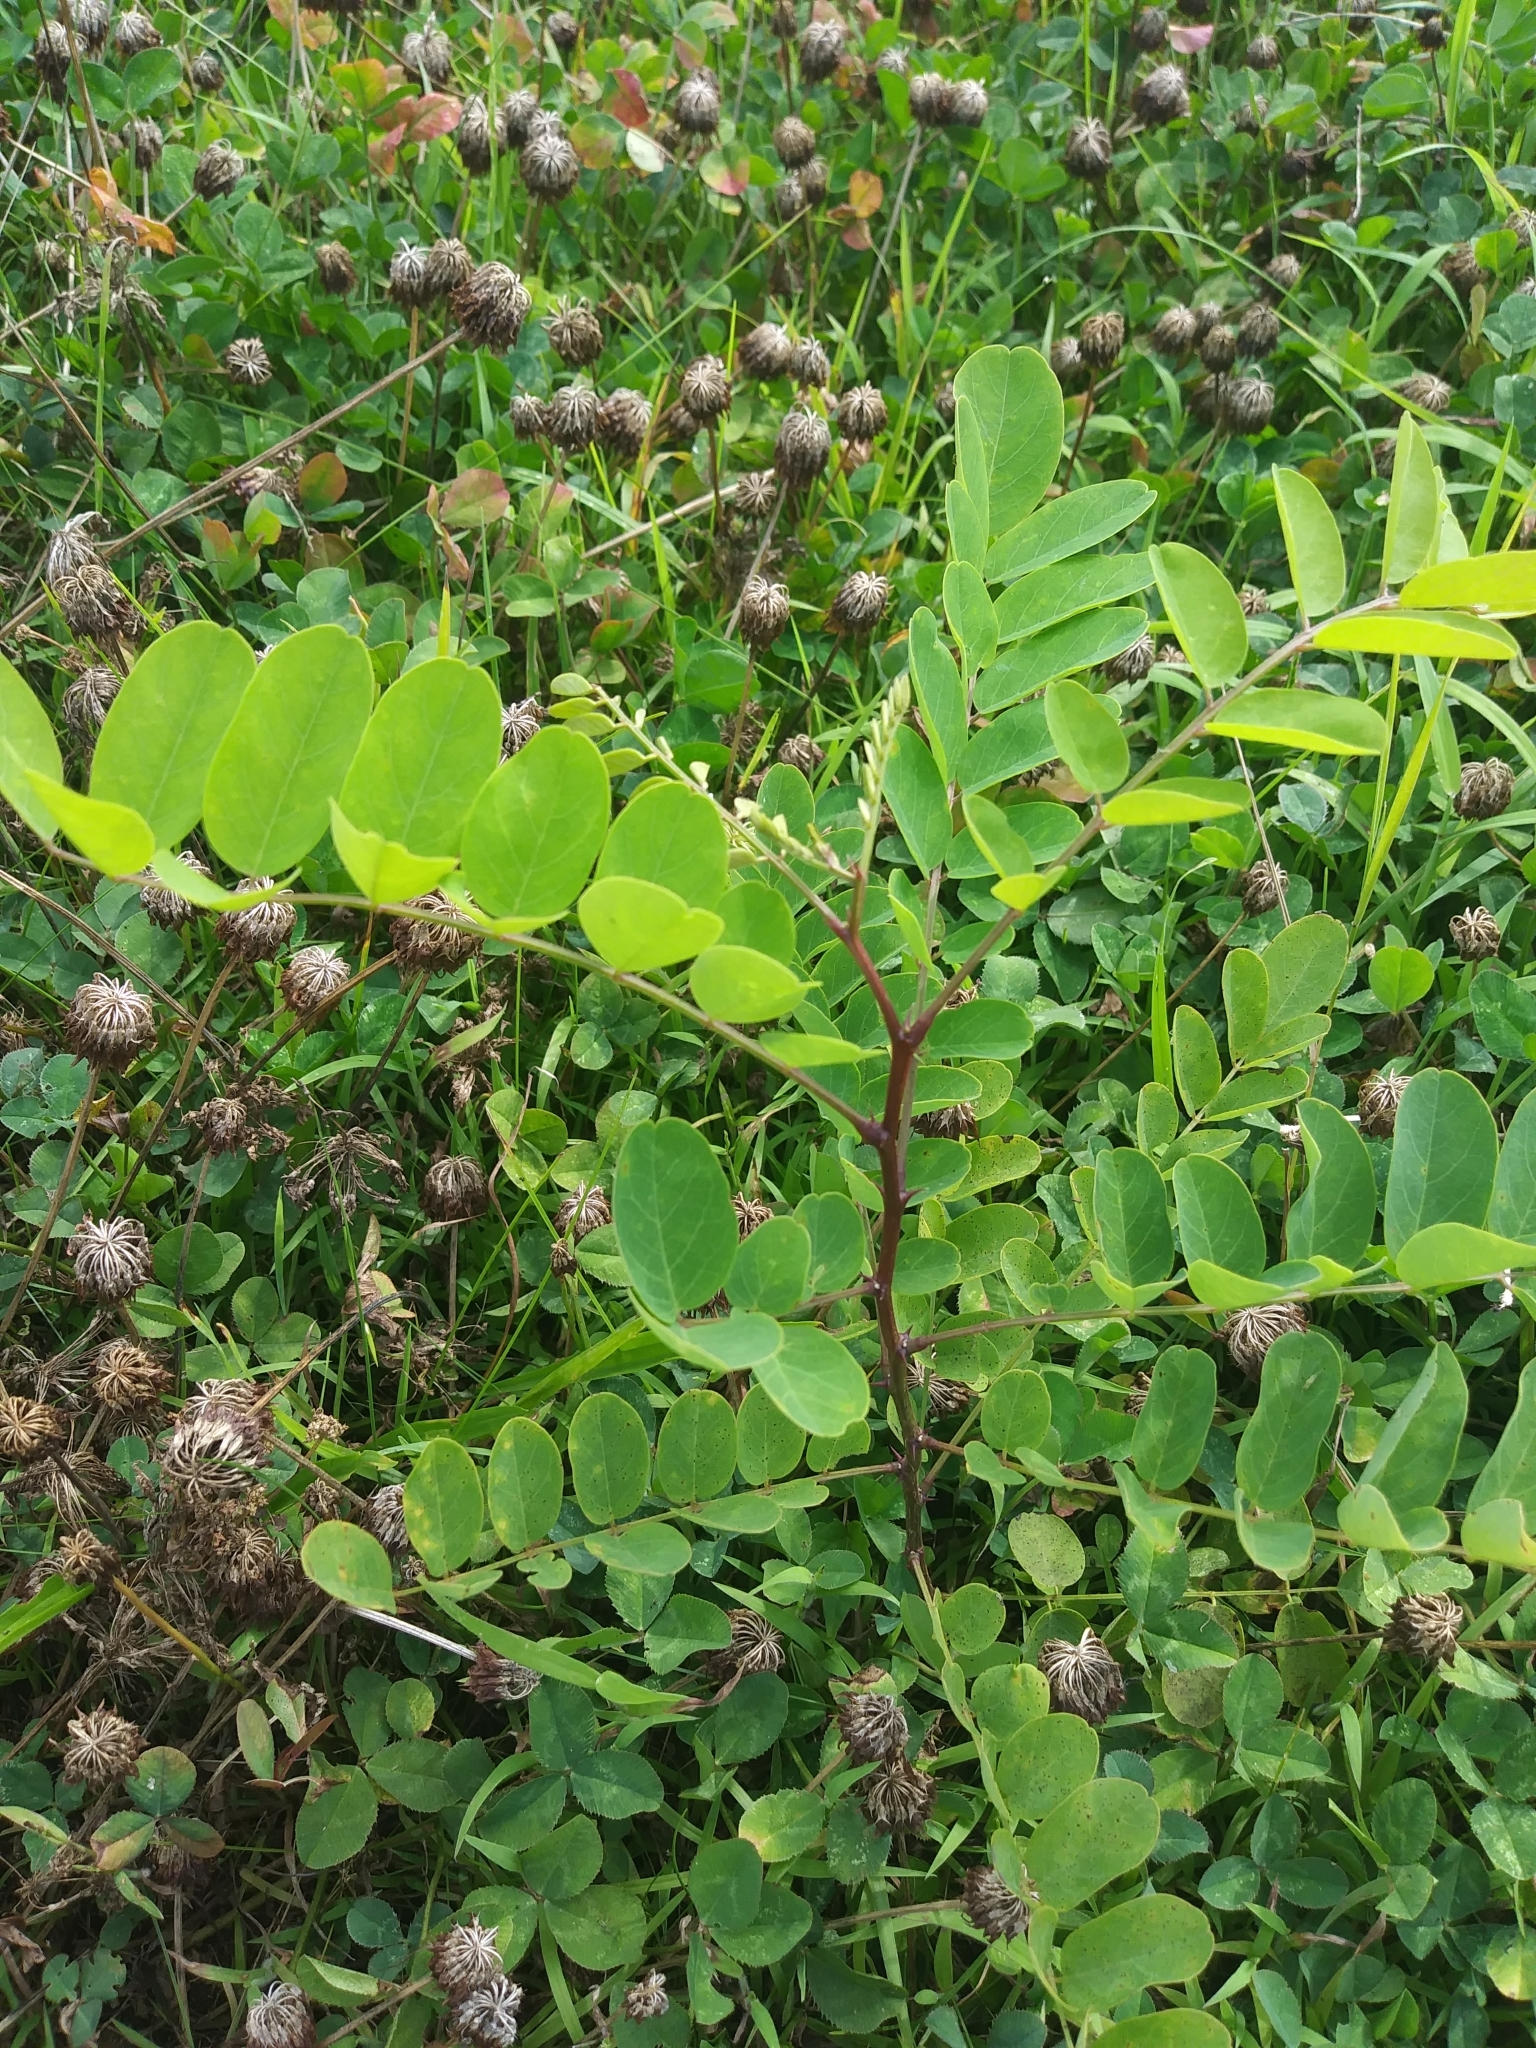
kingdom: Plantae
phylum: Tracheophyta
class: Magnoliopsida
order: Fabales
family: Fabaceae
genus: Robinia
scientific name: Robinia pseudoacacia
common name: Black locust
